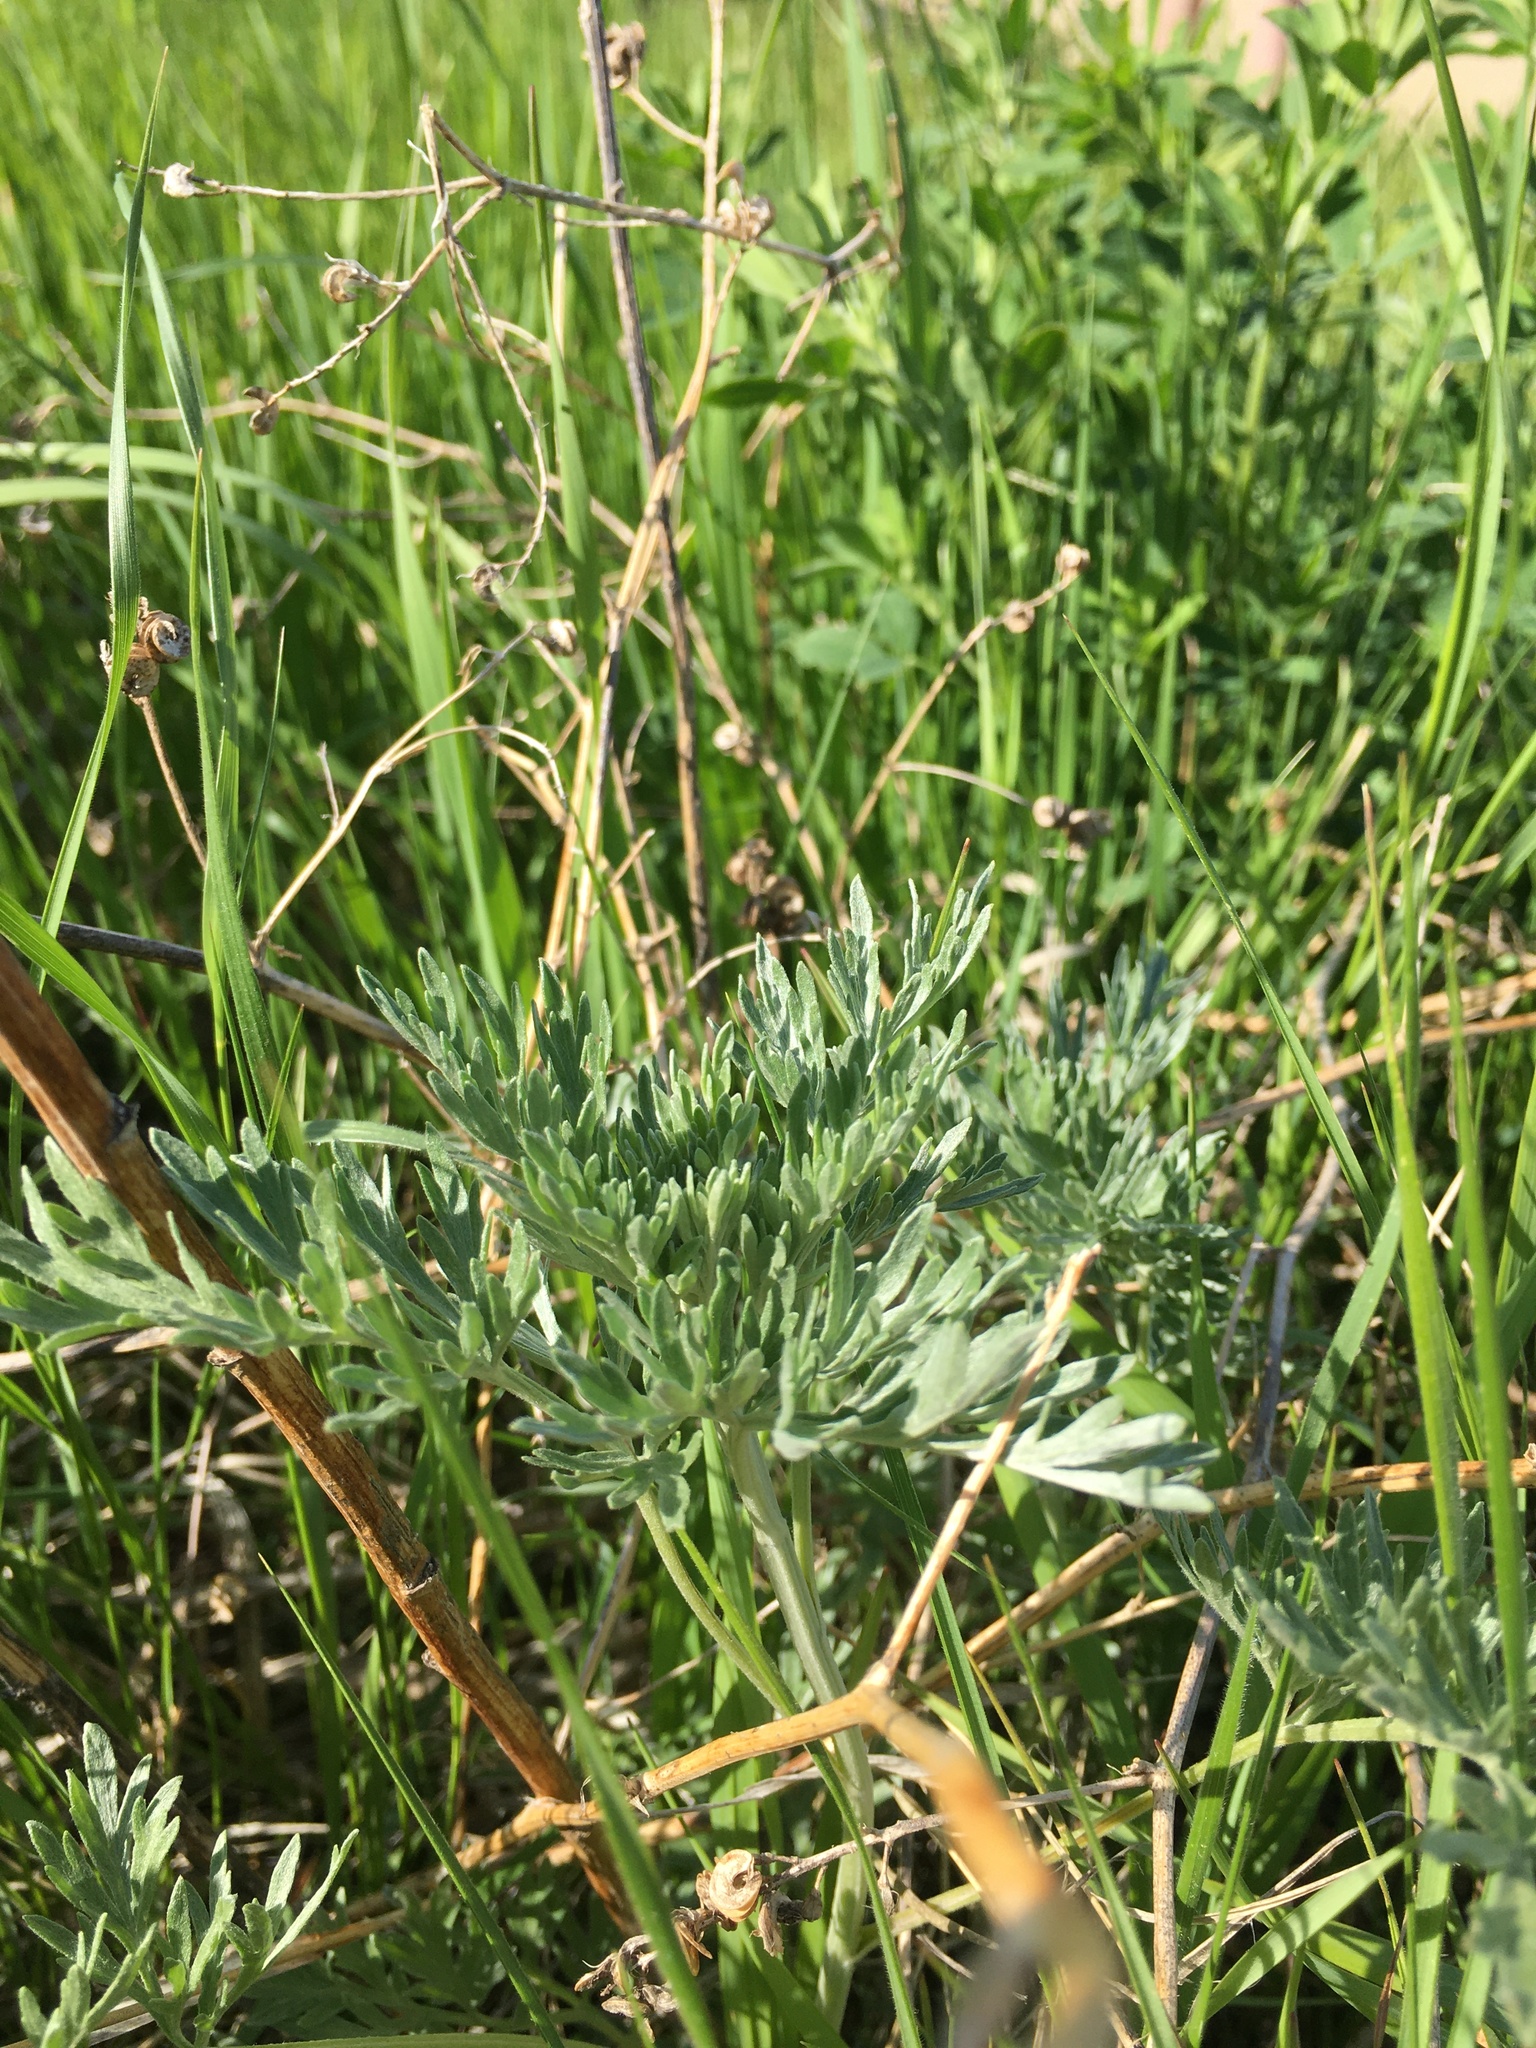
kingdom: Plantae
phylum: Tracheophyta
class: Magnoliopsida
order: Asterales
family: Asteraceae
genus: Artemisia
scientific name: Artemisia absinthium
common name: Wormwood
